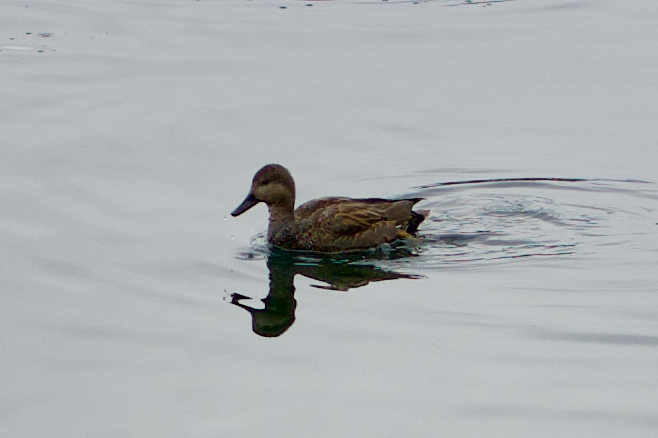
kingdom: Animalia
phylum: Chordata
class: Aves
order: Anseriformes
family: Anatidae
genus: Mareca
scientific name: Mareca strepera
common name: Gadwall
